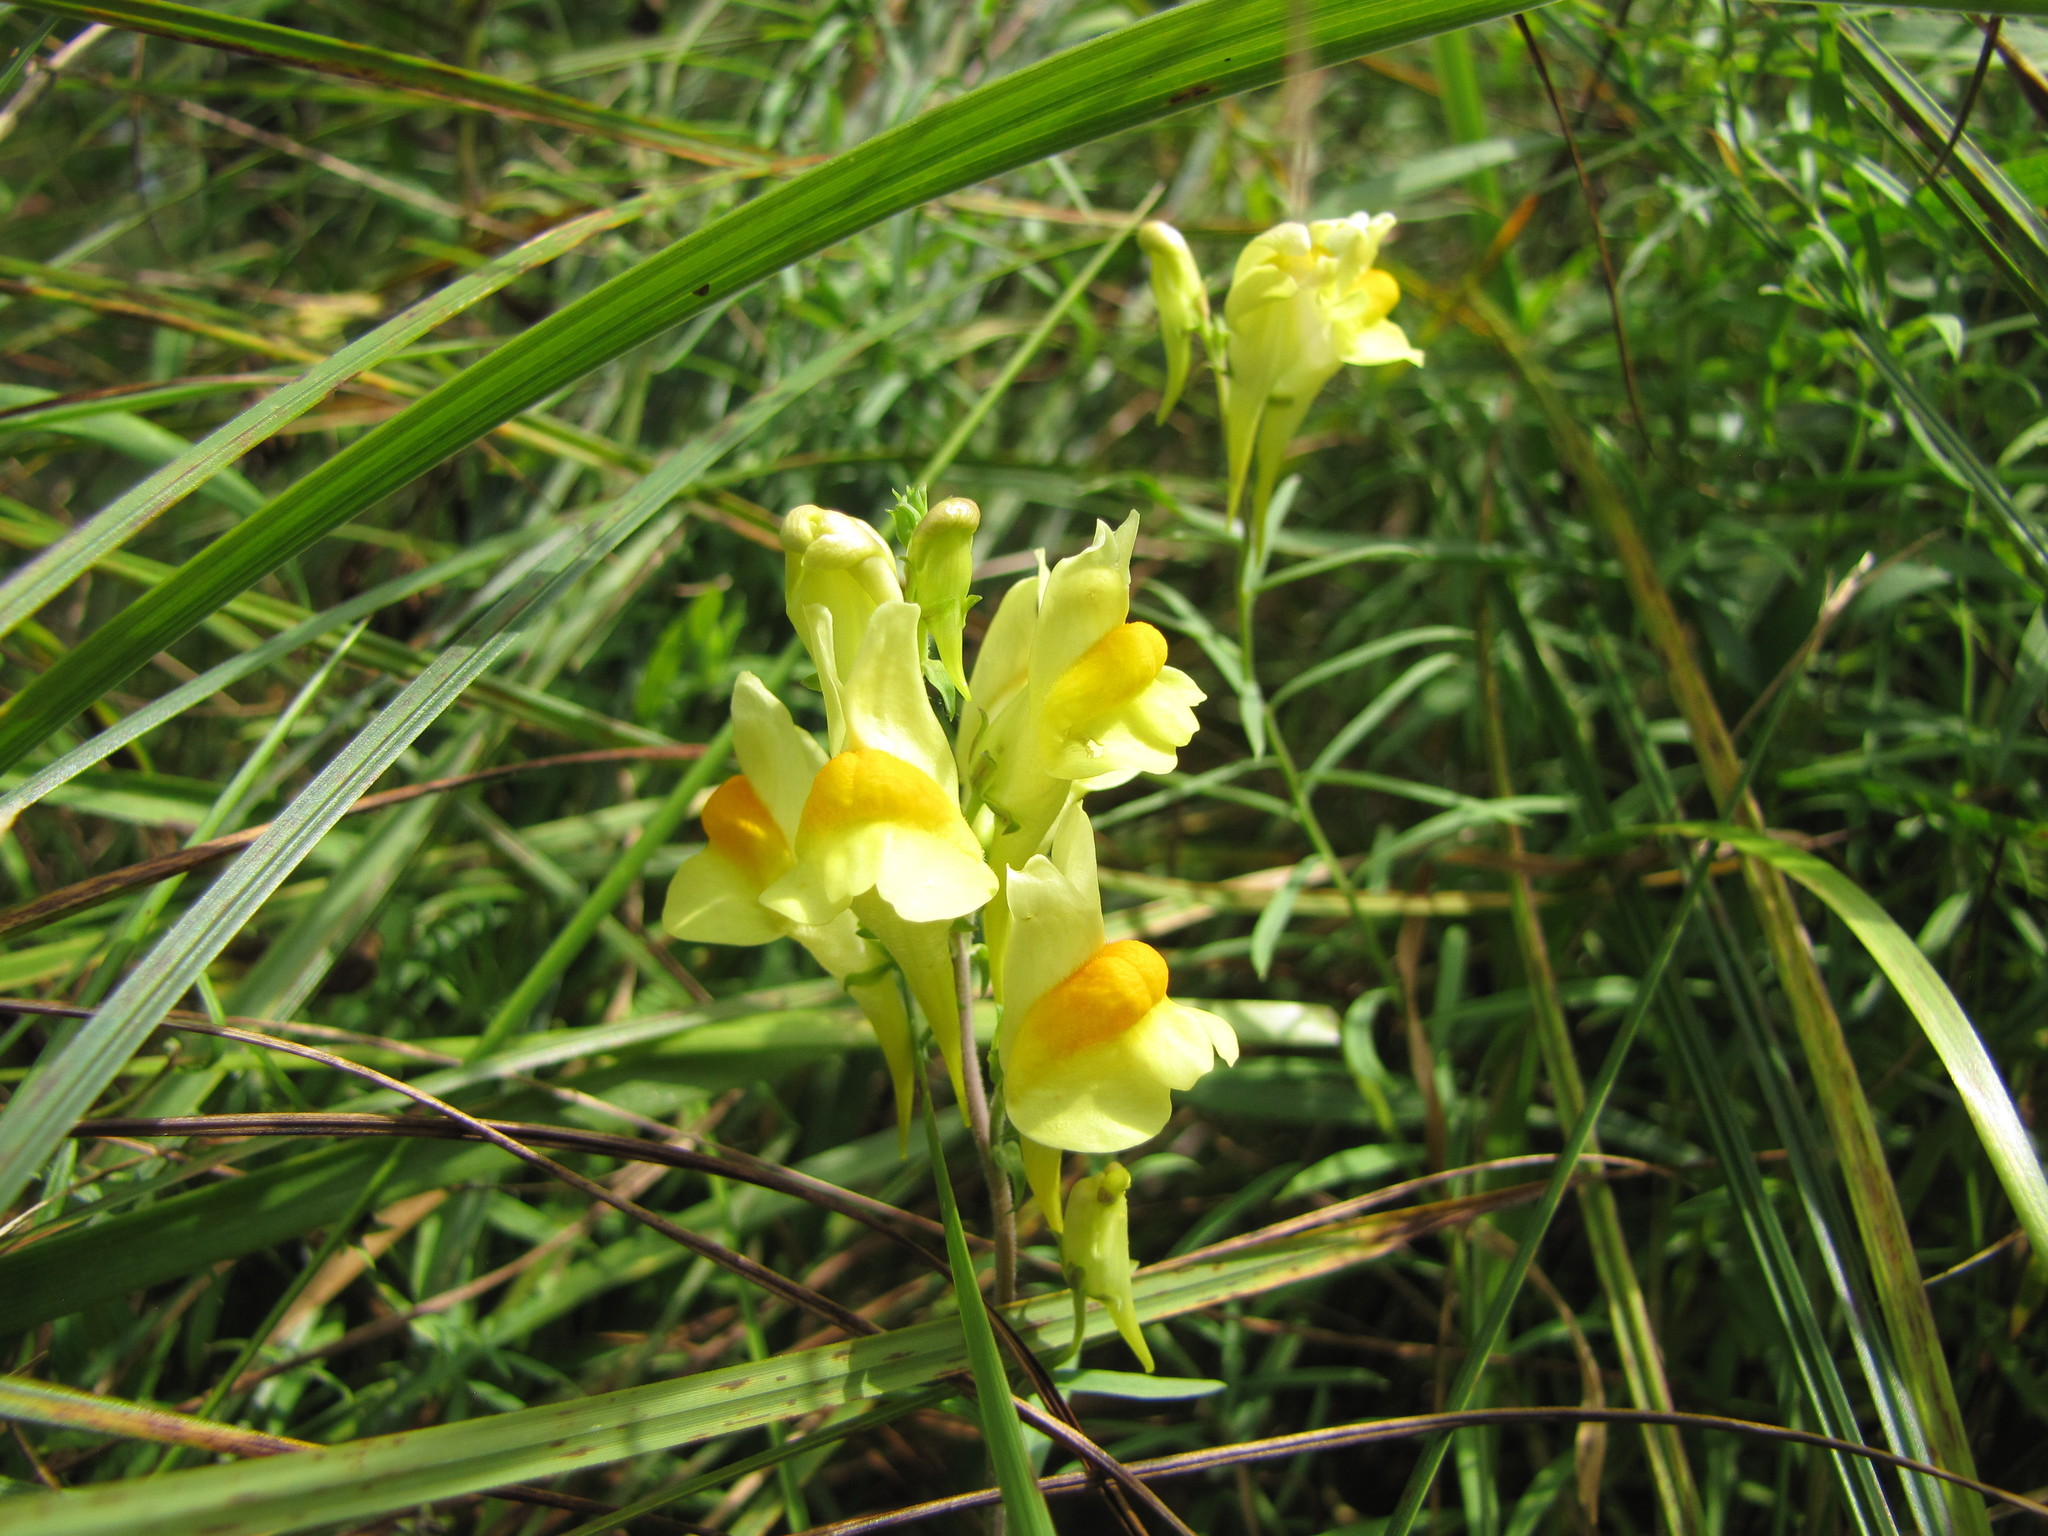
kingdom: Plantae
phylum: Tracheophyta
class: Magnoliopsida
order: Lamiales
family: Plantaginaceae
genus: Linaria
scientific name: Linaria vulgaris
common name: Butter and eggs
